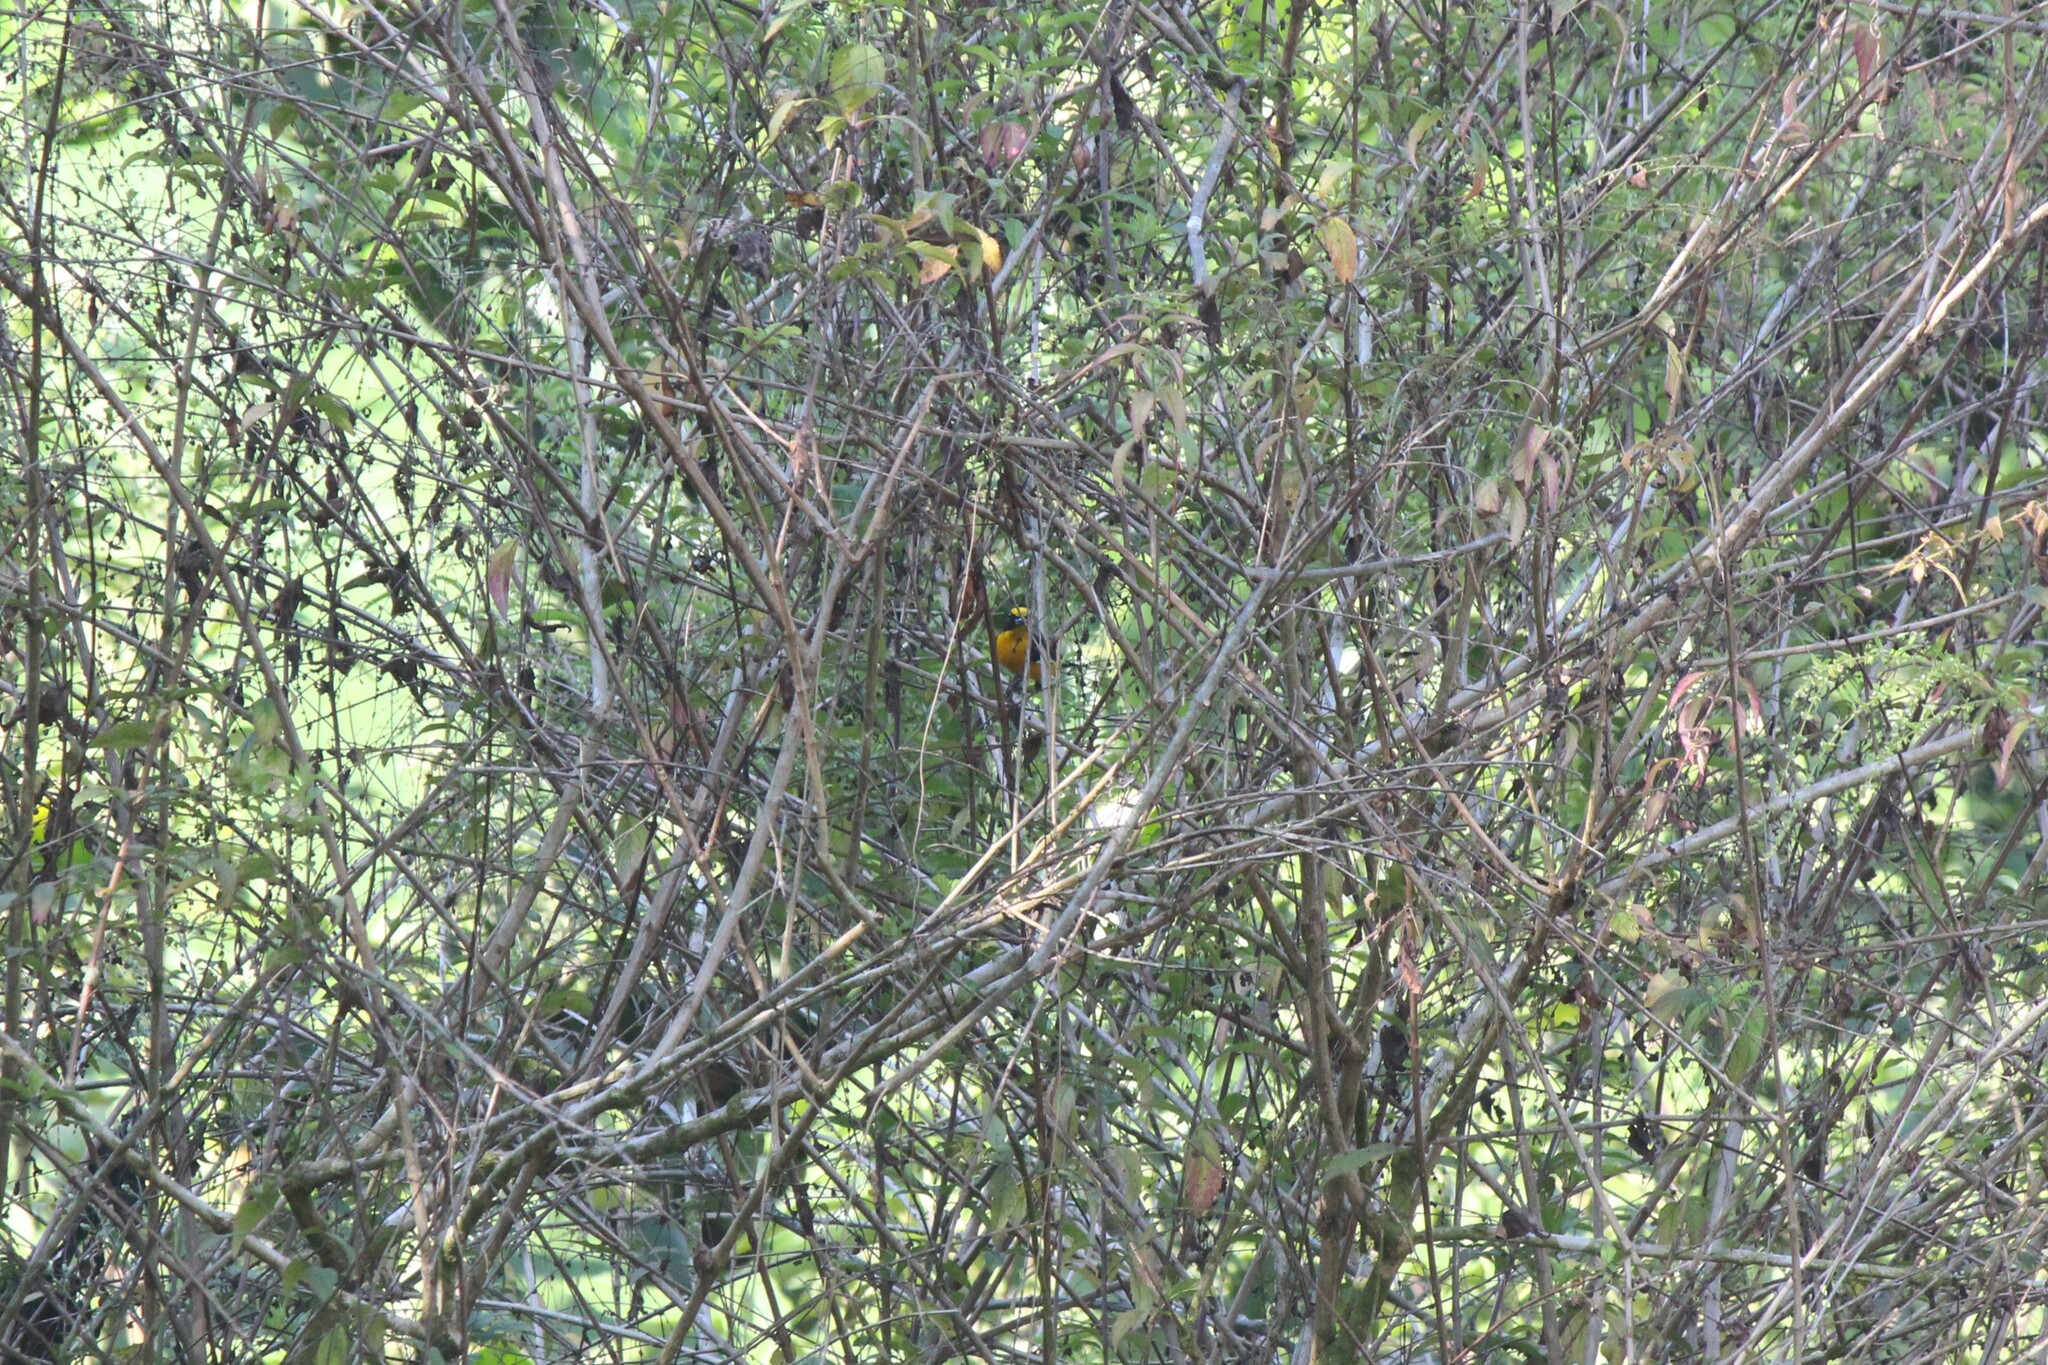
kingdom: Animalia
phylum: Chordata
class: Aves
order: Passeriformes
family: Fringillidae
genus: Euphonia
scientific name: Euphonia laniirostris
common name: Thick-billed euphonia
